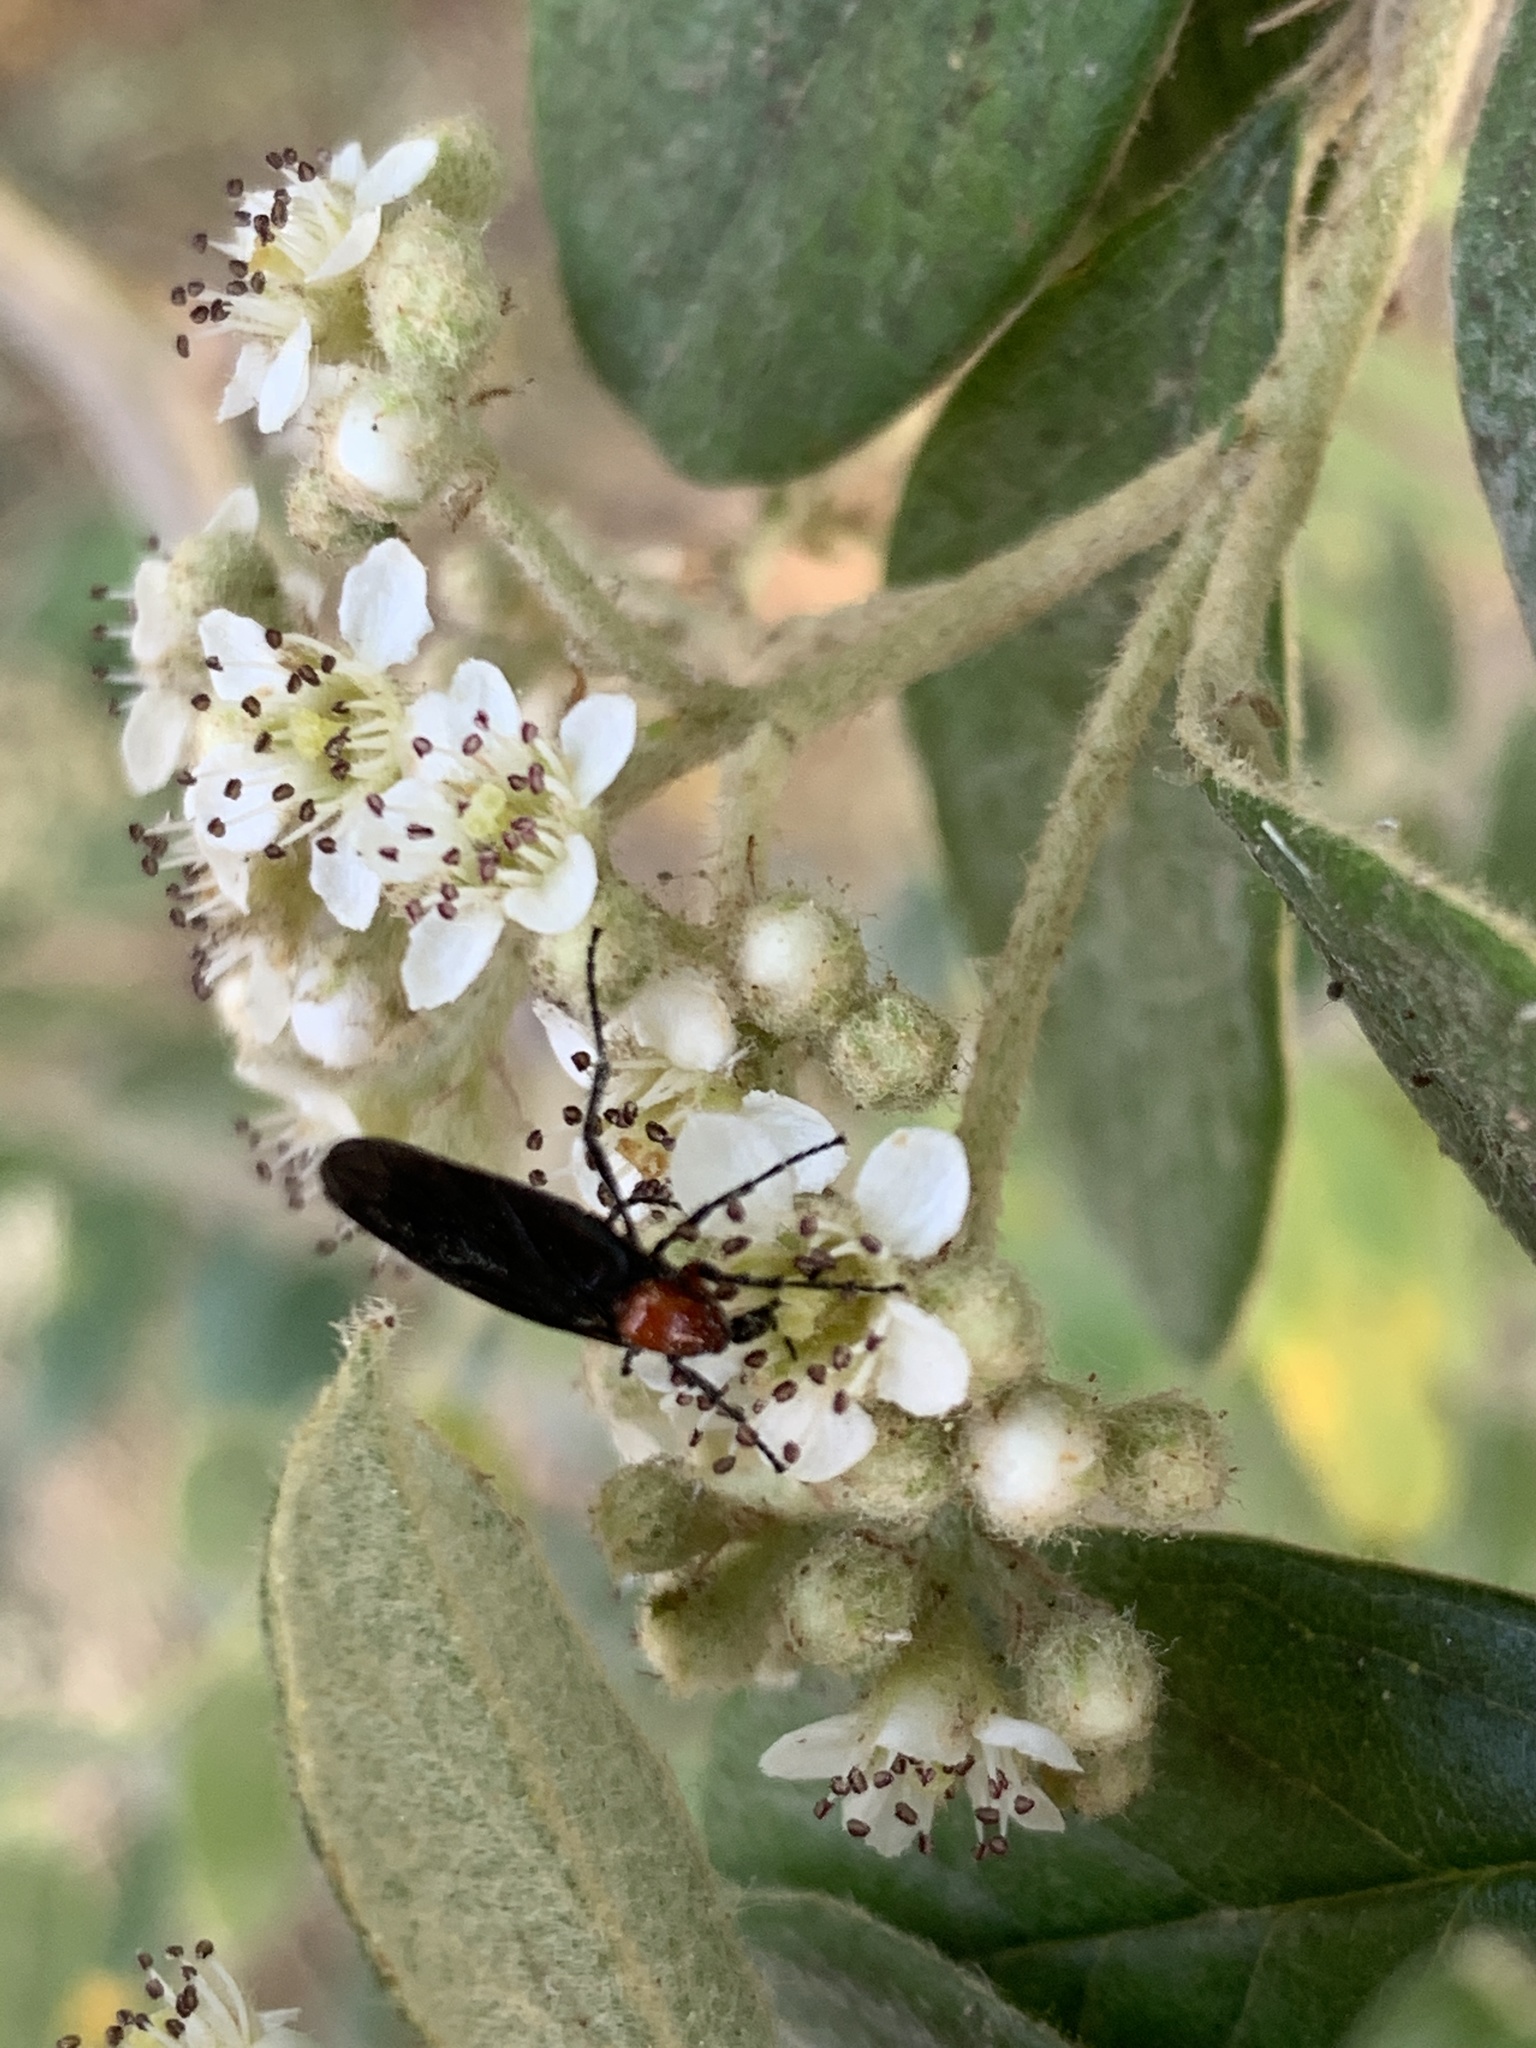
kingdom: Animalia
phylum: Arthropoda
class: Insecta
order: Diptera
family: Bibionidae
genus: Dilophus
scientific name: Dilophus pectoralis
